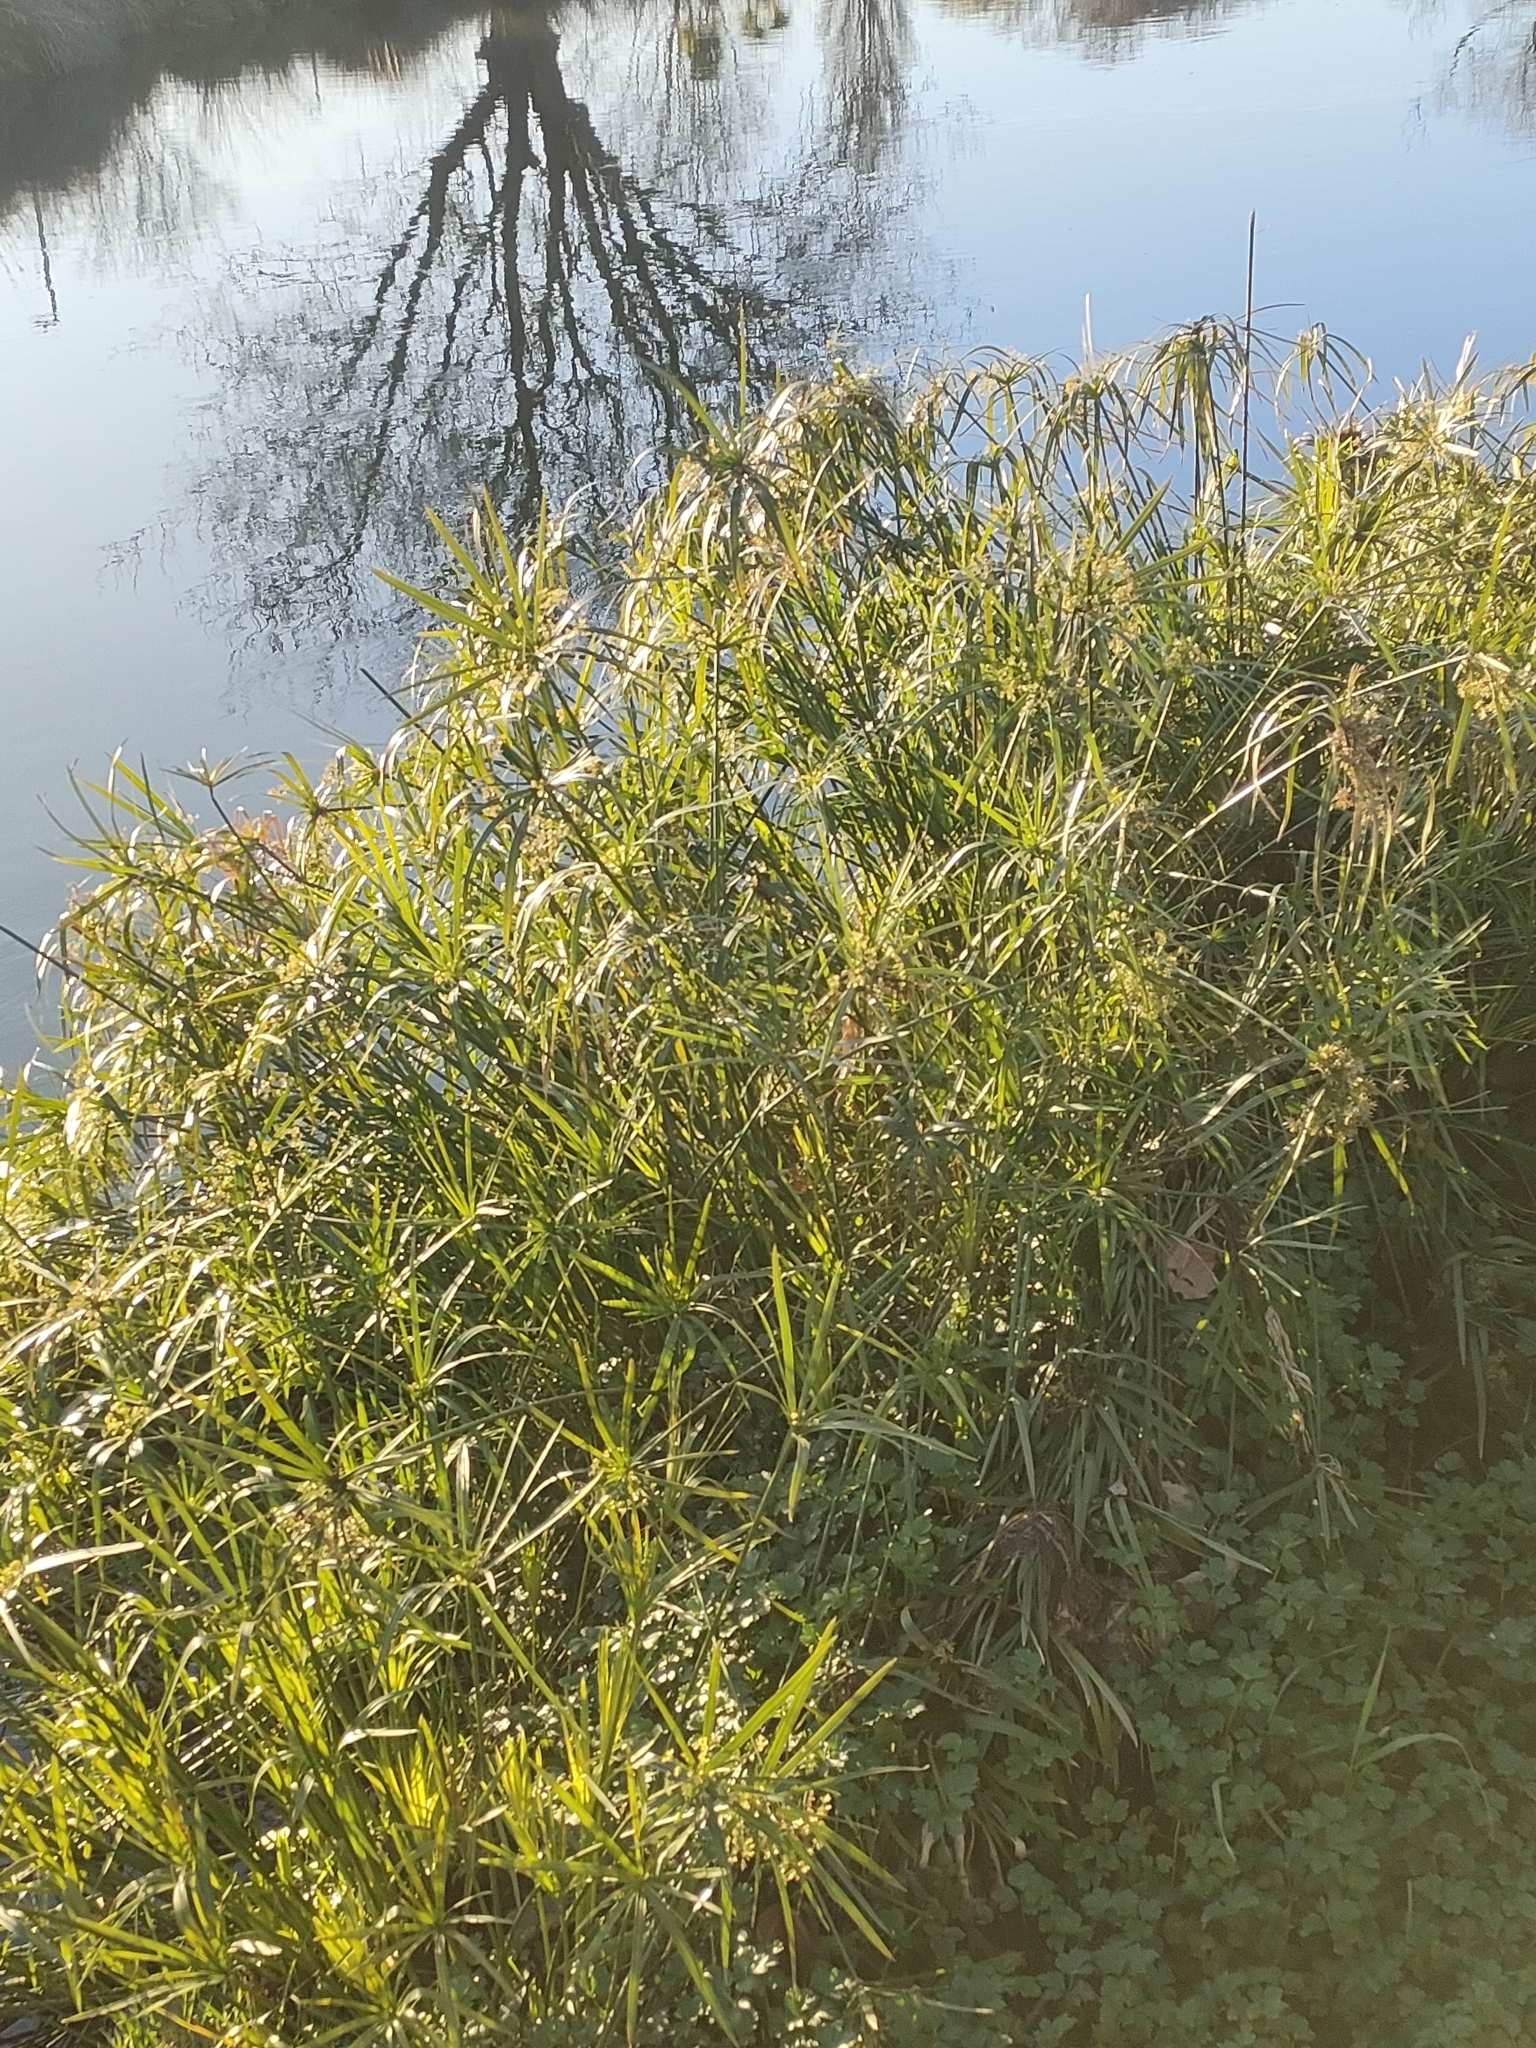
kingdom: Plantae
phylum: Tracheophyta
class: Liliopsida
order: Poales
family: Cyperaceae
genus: Cyperus
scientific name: Cyperus alternifolius
